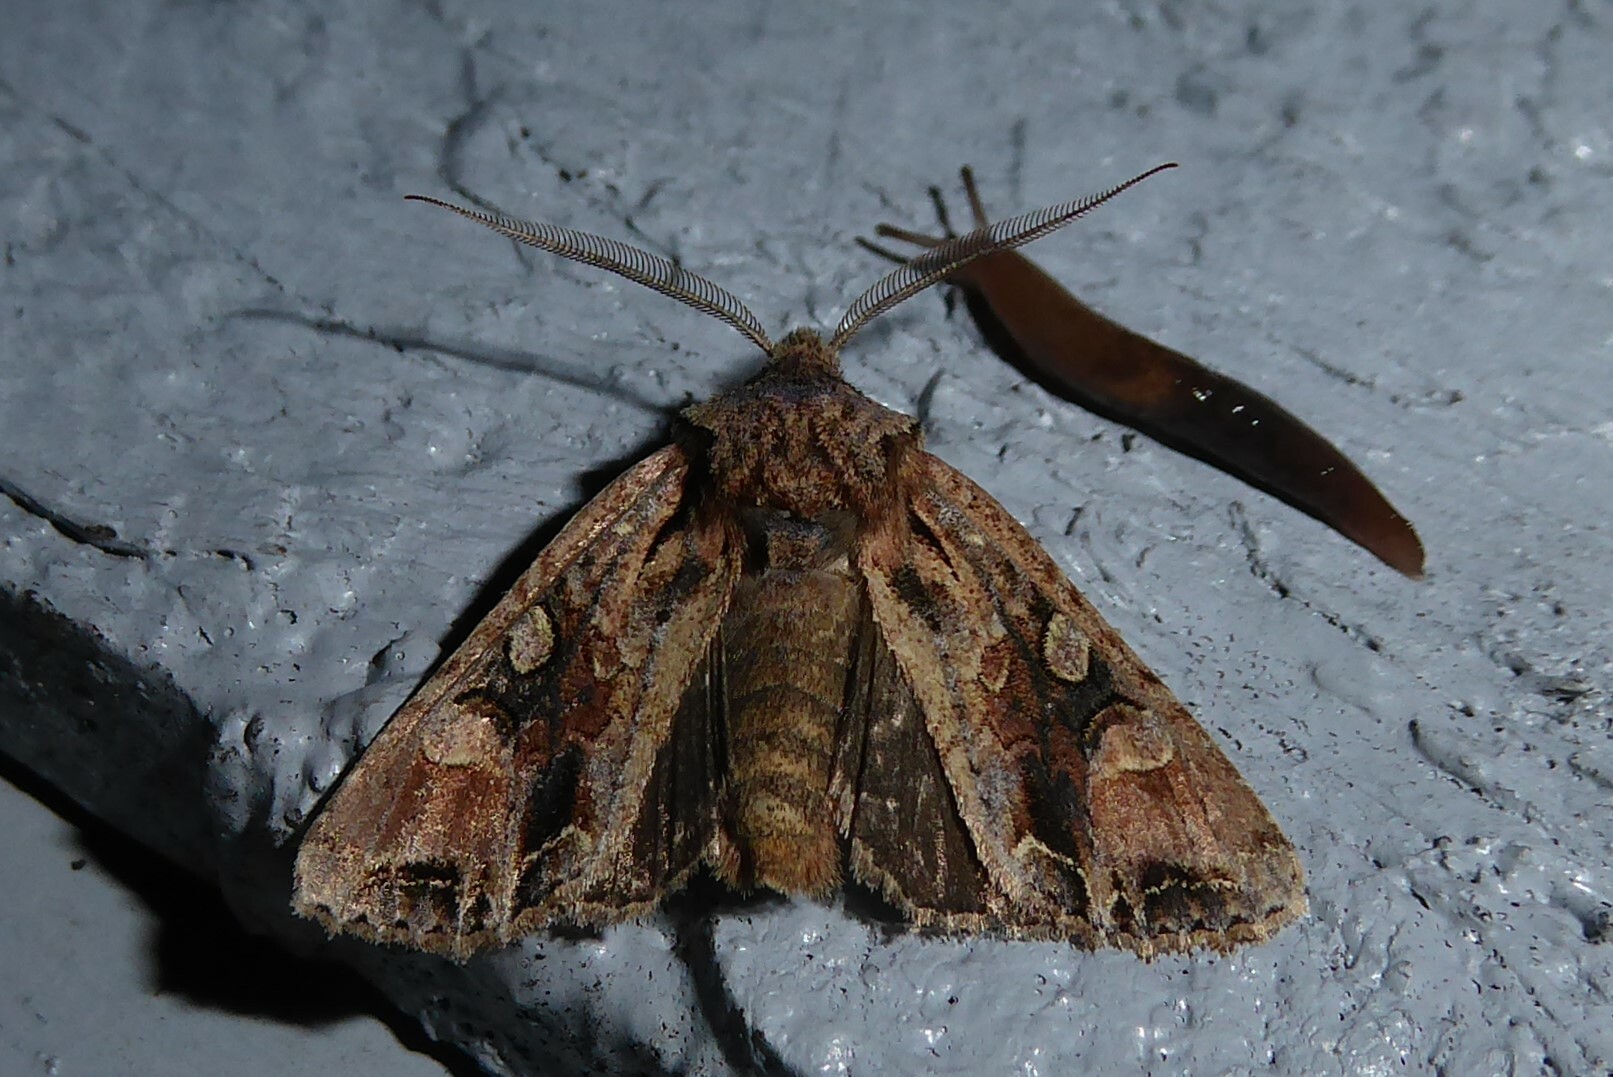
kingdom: Animalia
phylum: Arthropoda
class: Insecta
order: Lepidoptera
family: Noctuidae
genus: Ichneutica
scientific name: Ichneutica
